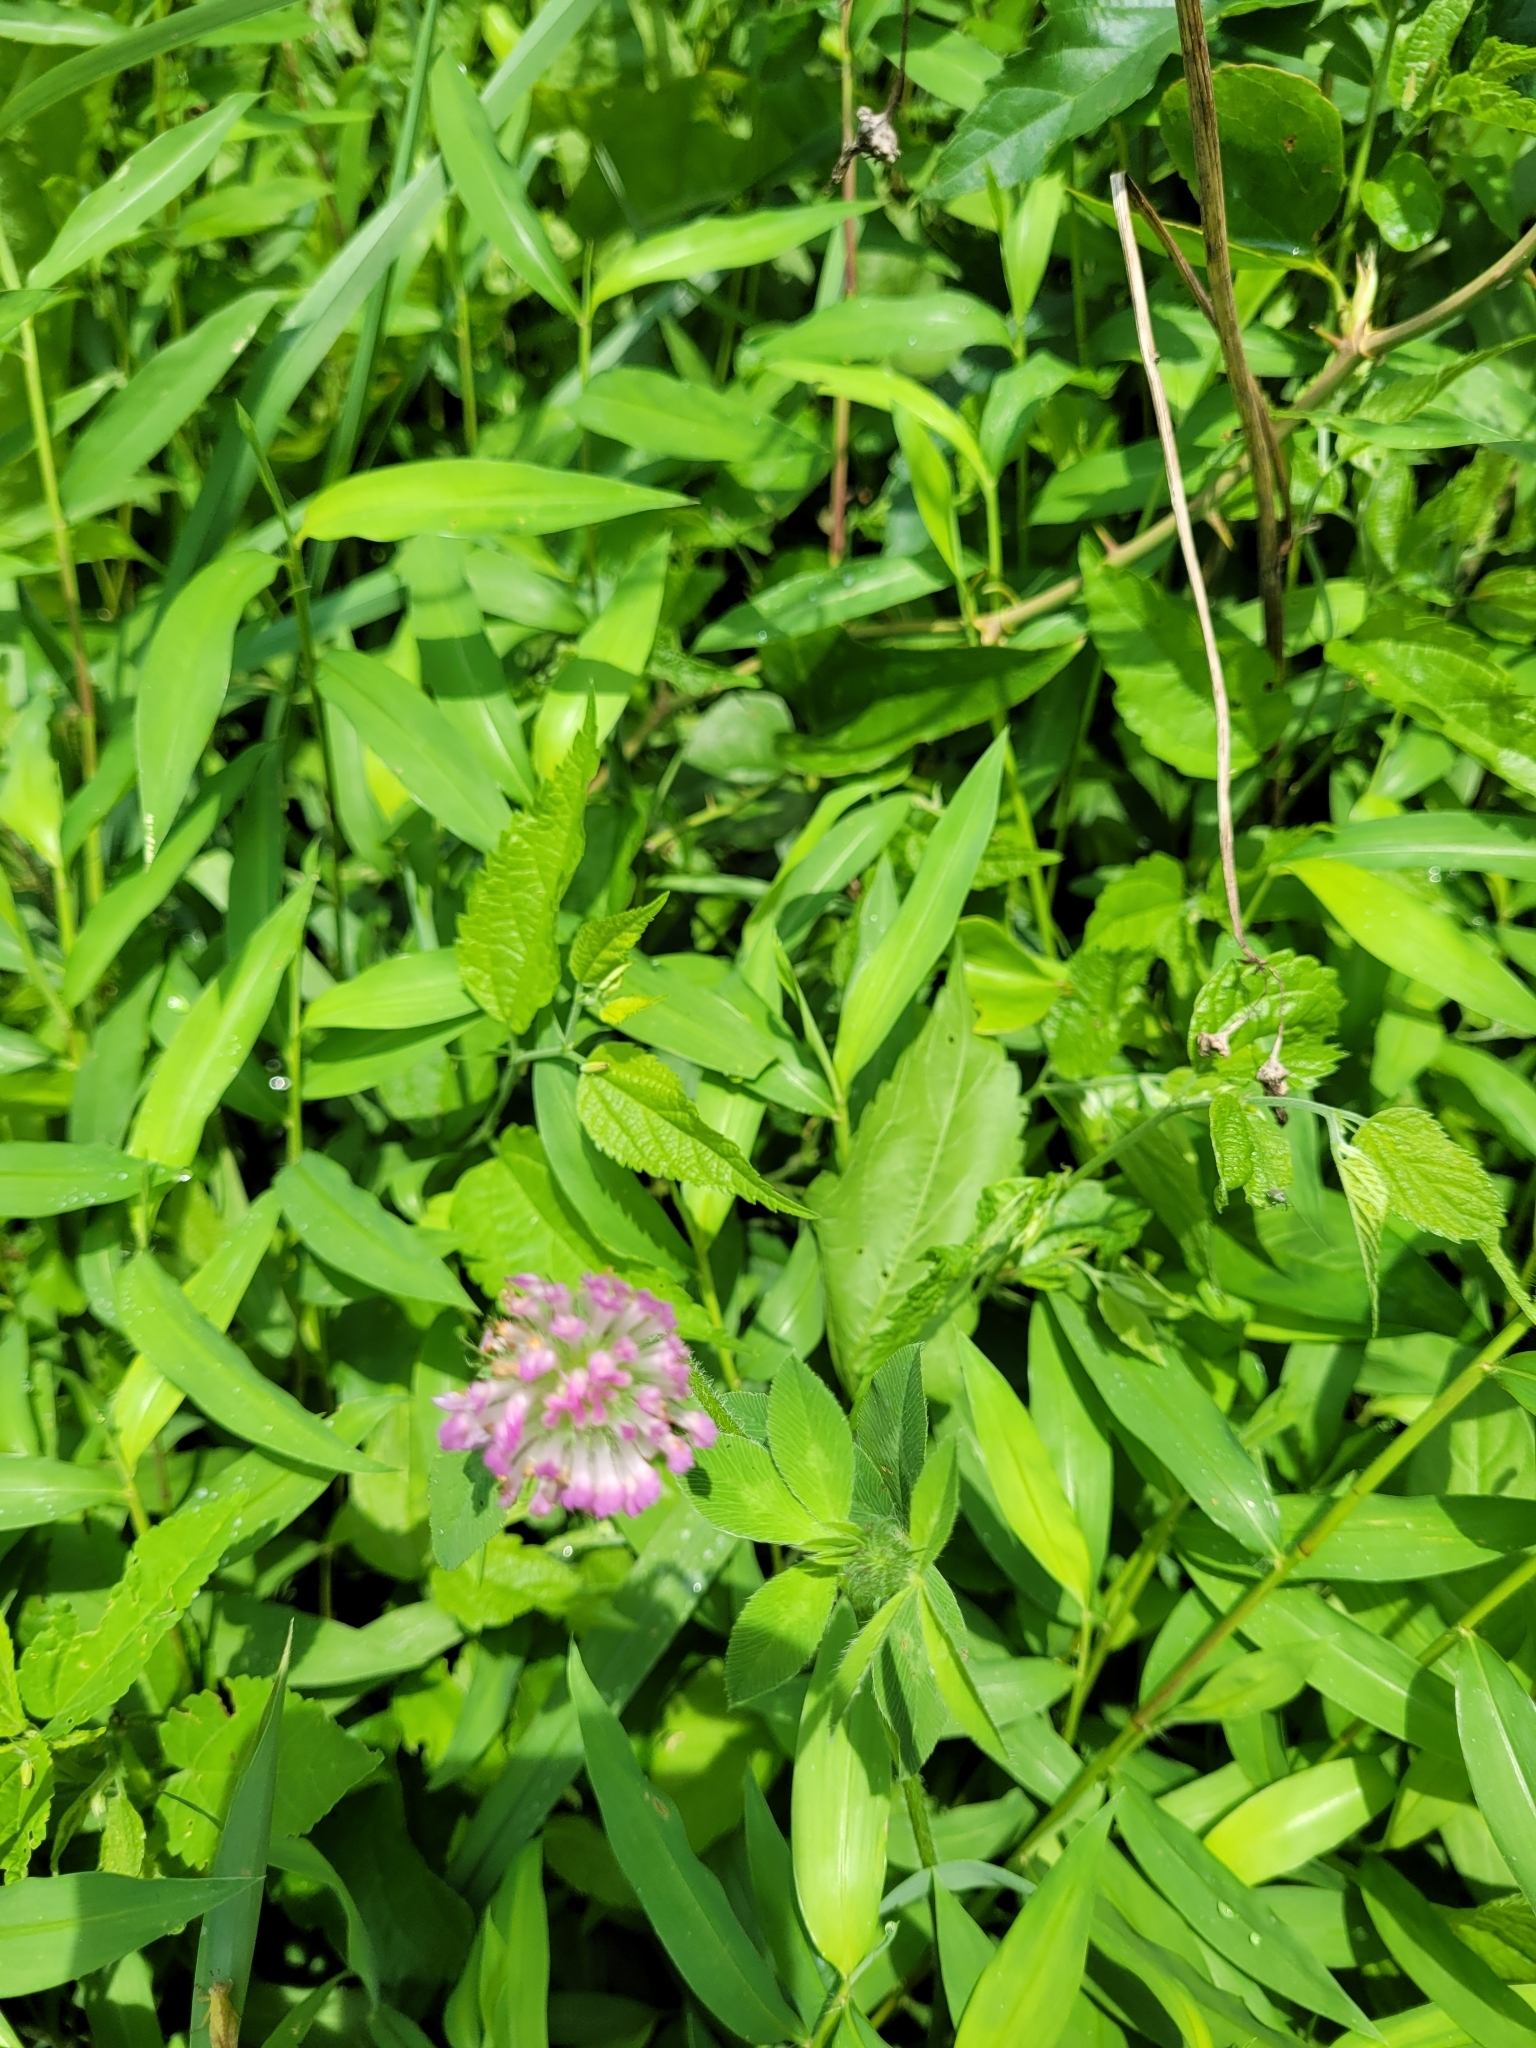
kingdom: Plantae
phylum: Tracheophyta
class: Magnoliopsida
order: Fabales
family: Fabaceae
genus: Trifolium
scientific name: Trifolium pratense
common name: Red clover
